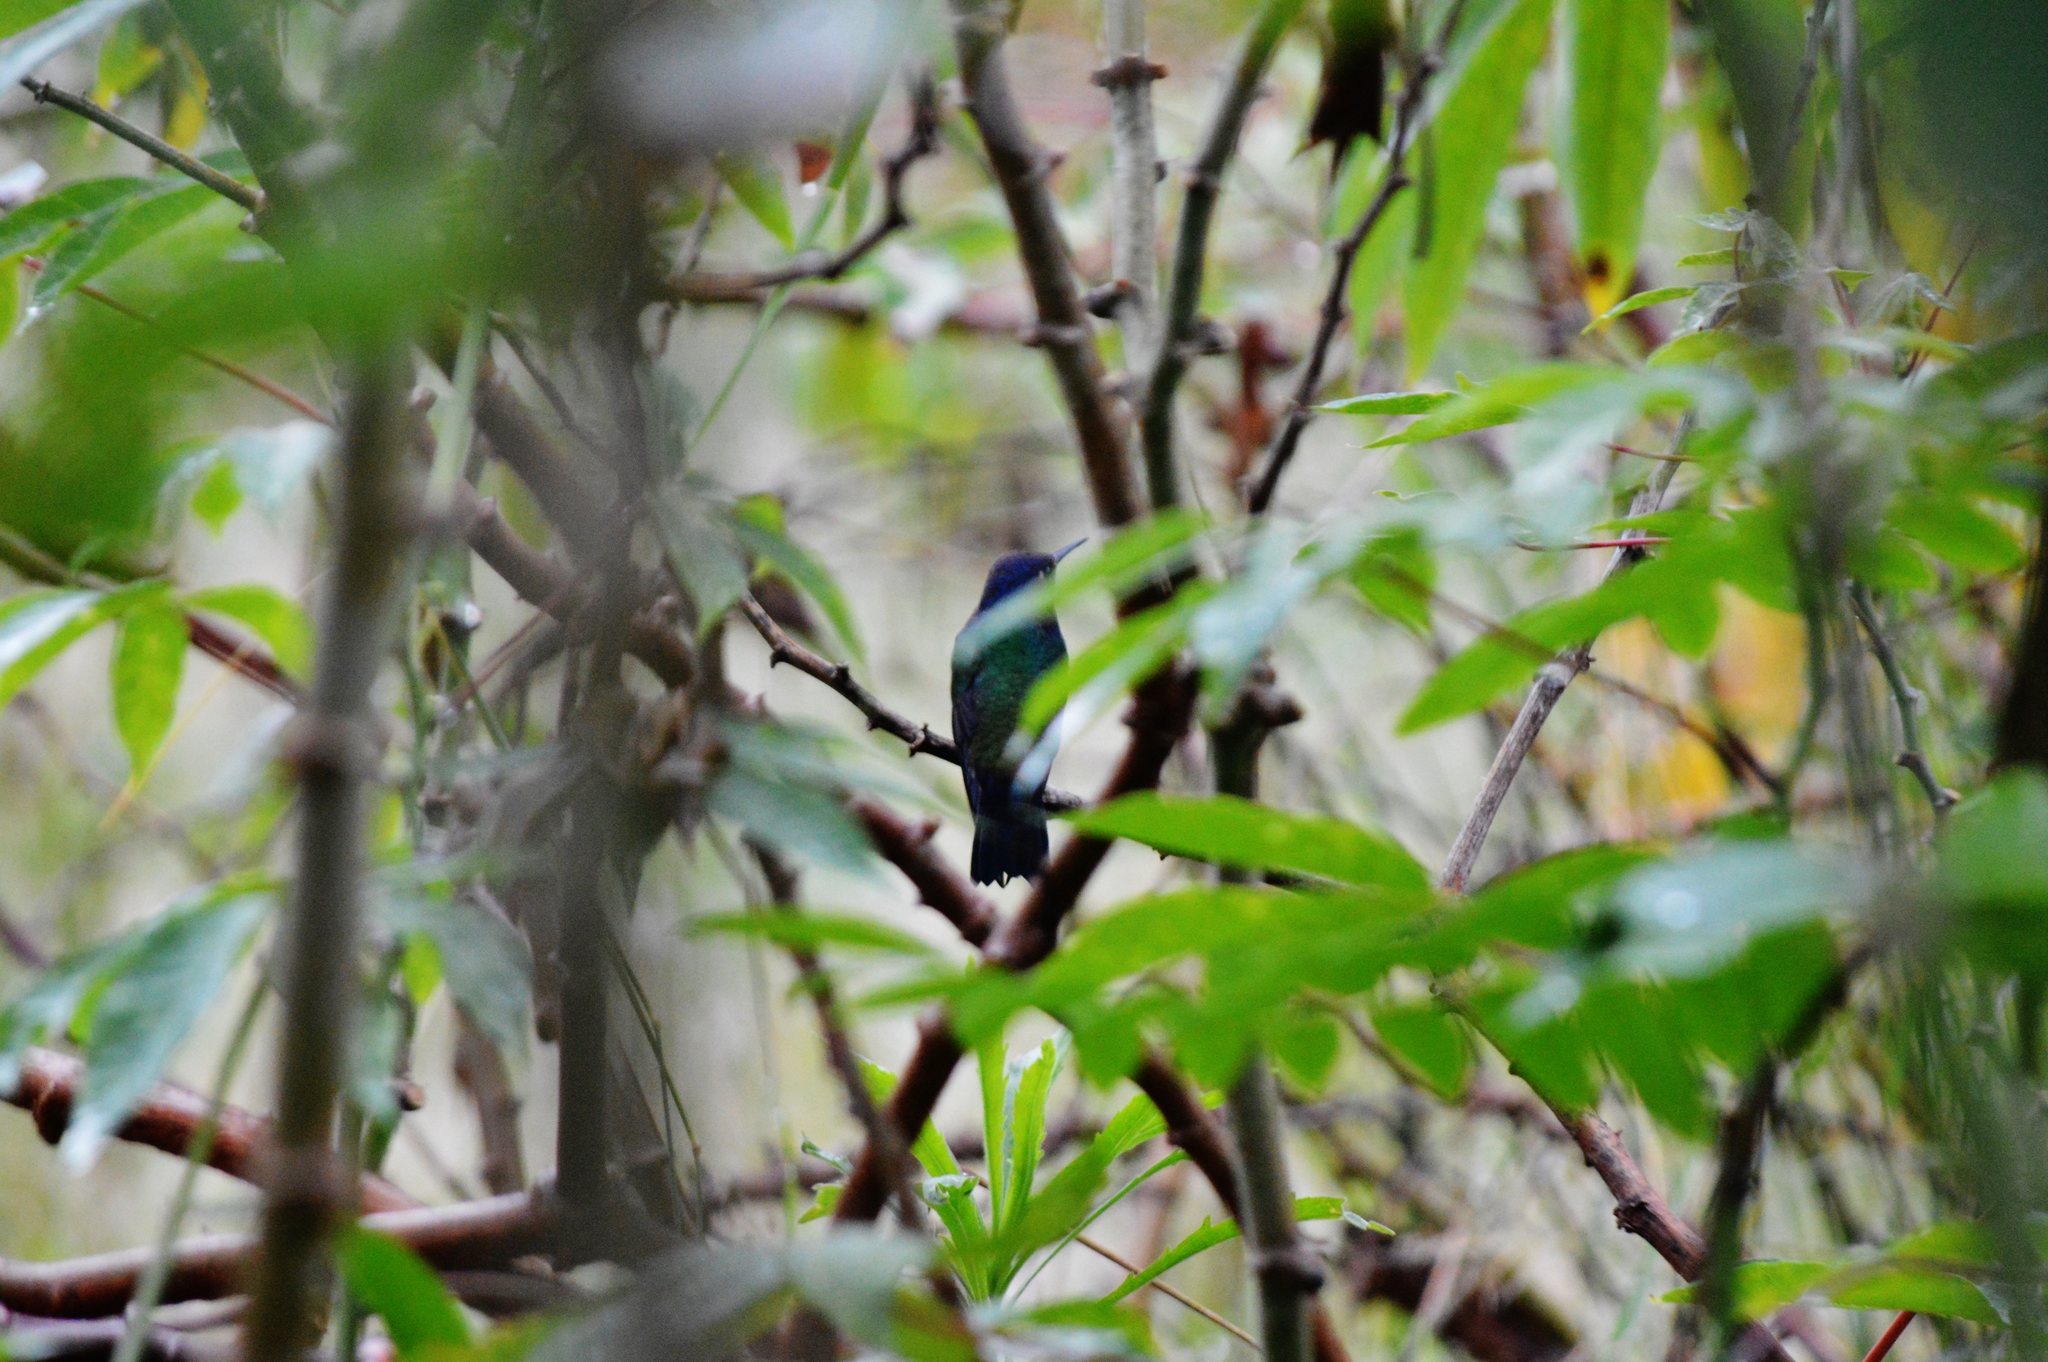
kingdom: Animalia
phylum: Chordata
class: Aves
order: Apodiformes
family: Trochilidae
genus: Eupetomena
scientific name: Eupetomena macroura
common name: Swallow-tailed hummingbird
